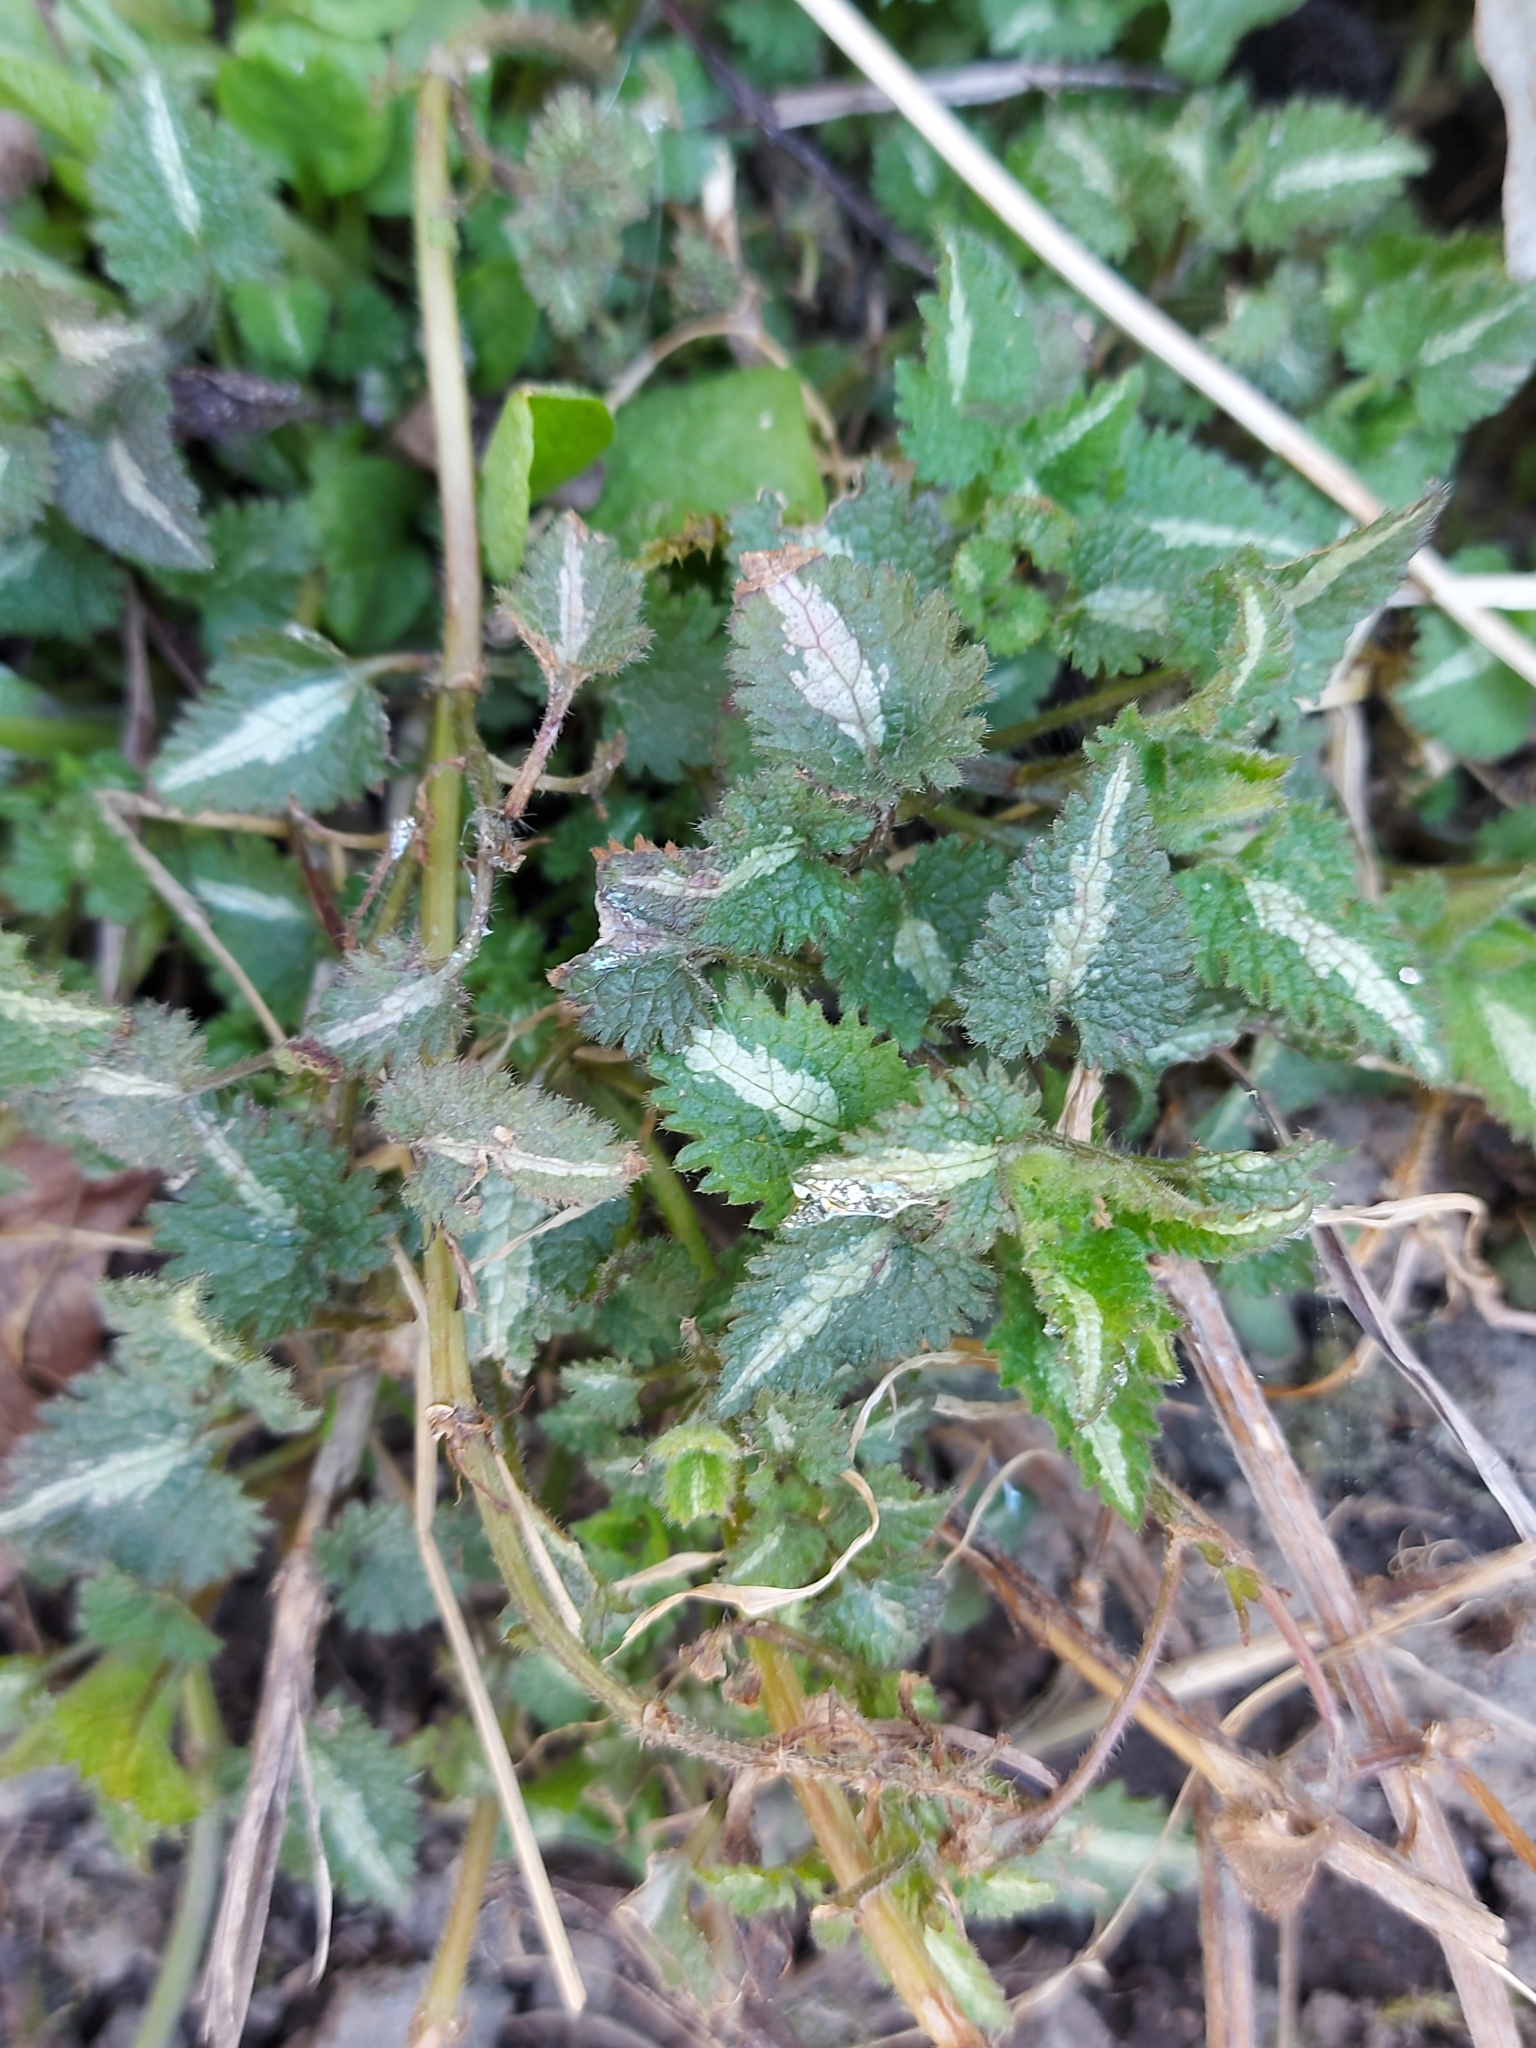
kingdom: Plantae
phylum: Tracheophyta
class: Magnoliopsida
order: Lamiales
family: Lamiaceae
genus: Lamium
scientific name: Lamium maculatum
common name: Spotted dead-nettle
